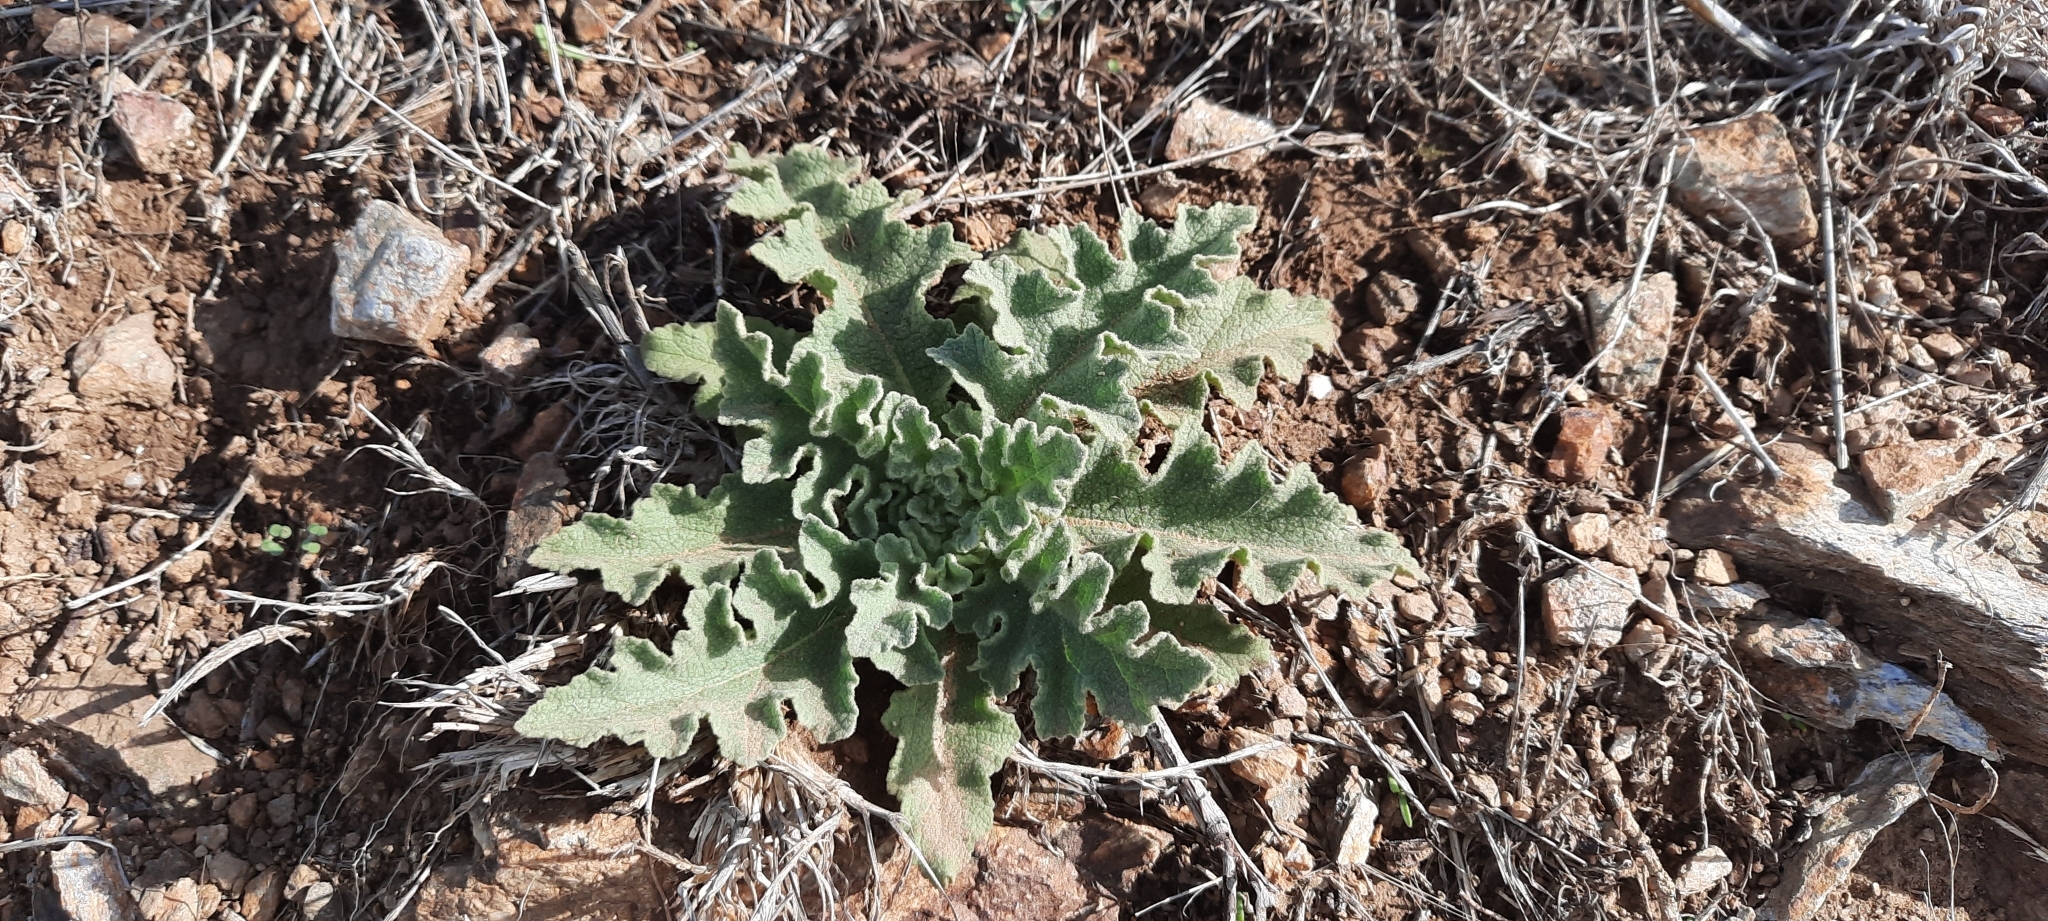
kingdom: Plantae
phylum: Tracheophyta
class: Magnoliopsida
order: Lamiales
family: Scrophulariaceae
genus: Verbascum
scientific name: Verbascum sinuatum
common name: Wavyleaf mullein
